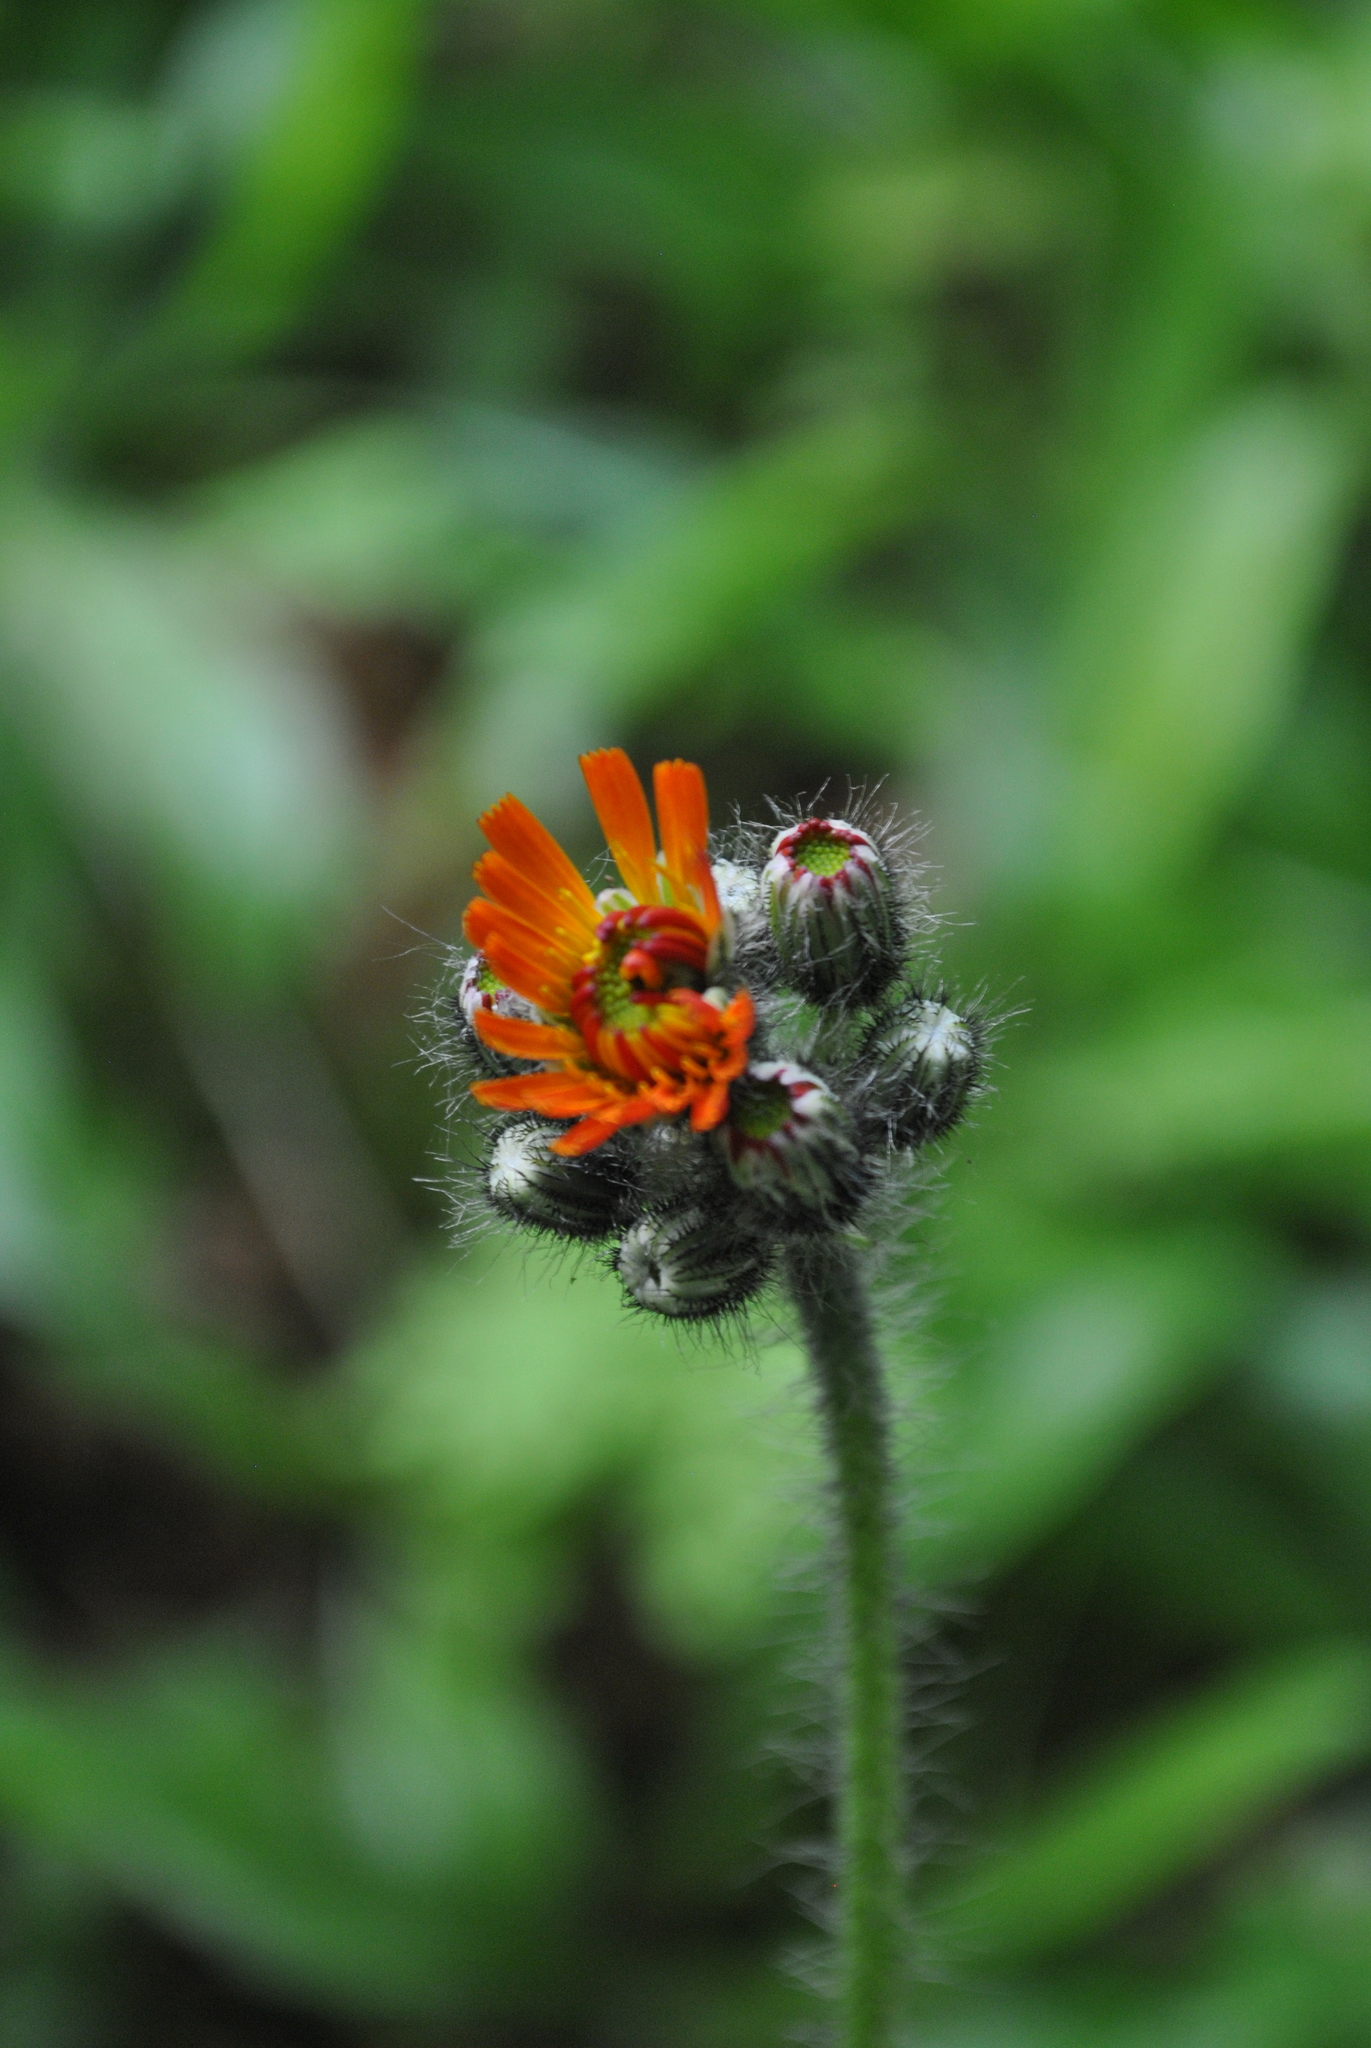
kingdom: Plantae
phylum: Tracheophyta
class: Magnoliopsida
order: Asterales
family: Asteraceae
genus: Pilosella
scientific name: Pilosella aurantiaca
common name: Fox-and-cubs
